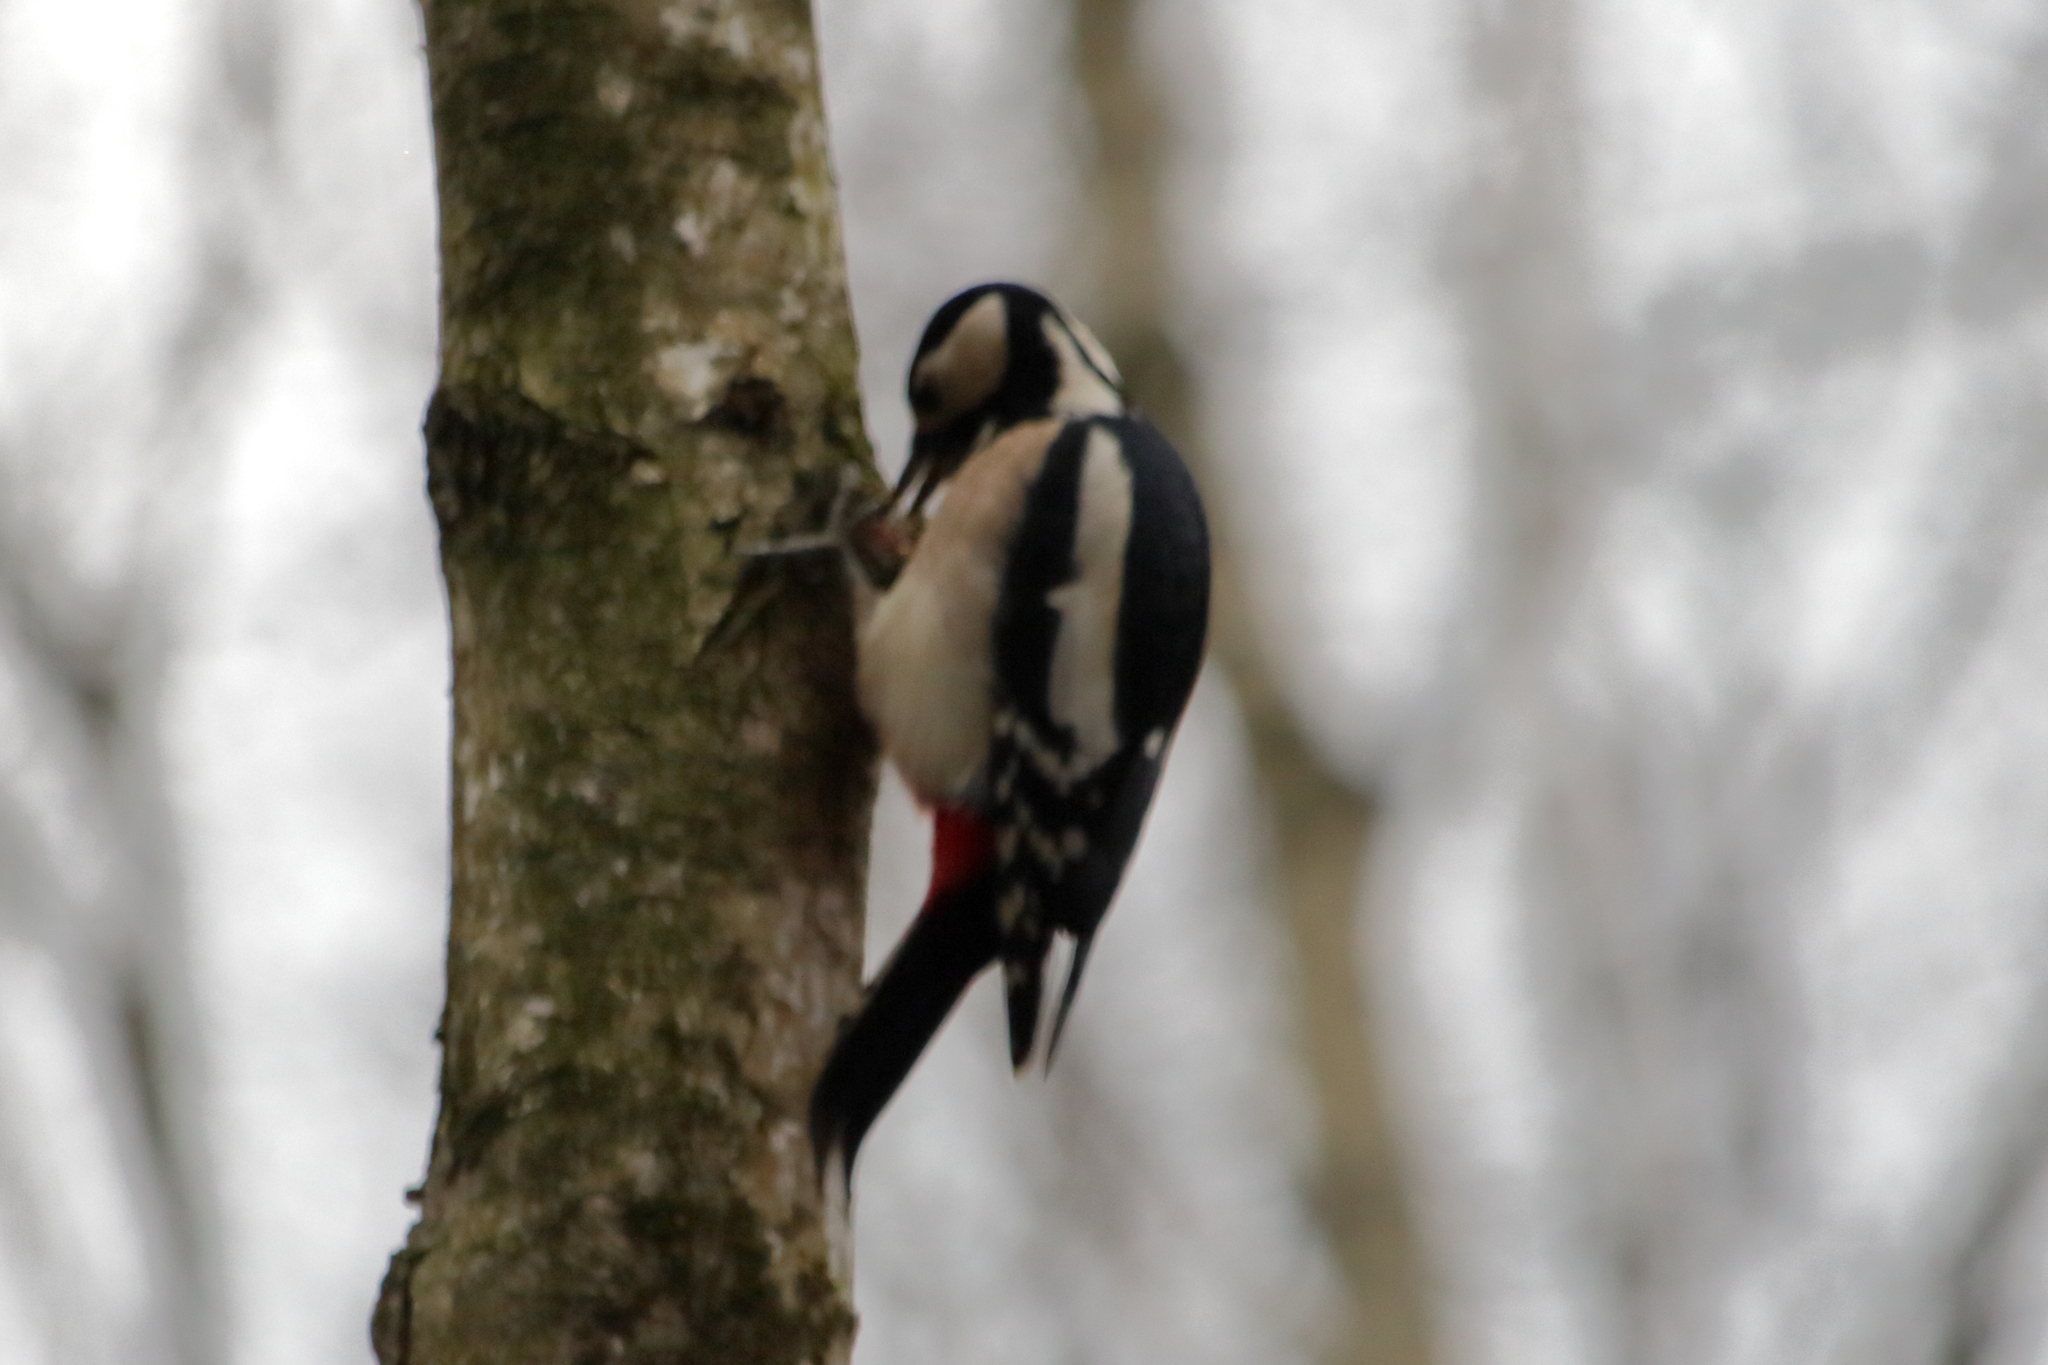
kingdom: Animalia
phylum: Chordata
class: Aves
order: Piciformes
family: Picidae
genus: Dendrocopos
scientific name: Dendrocopos major
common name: Great spotted woodpecker
